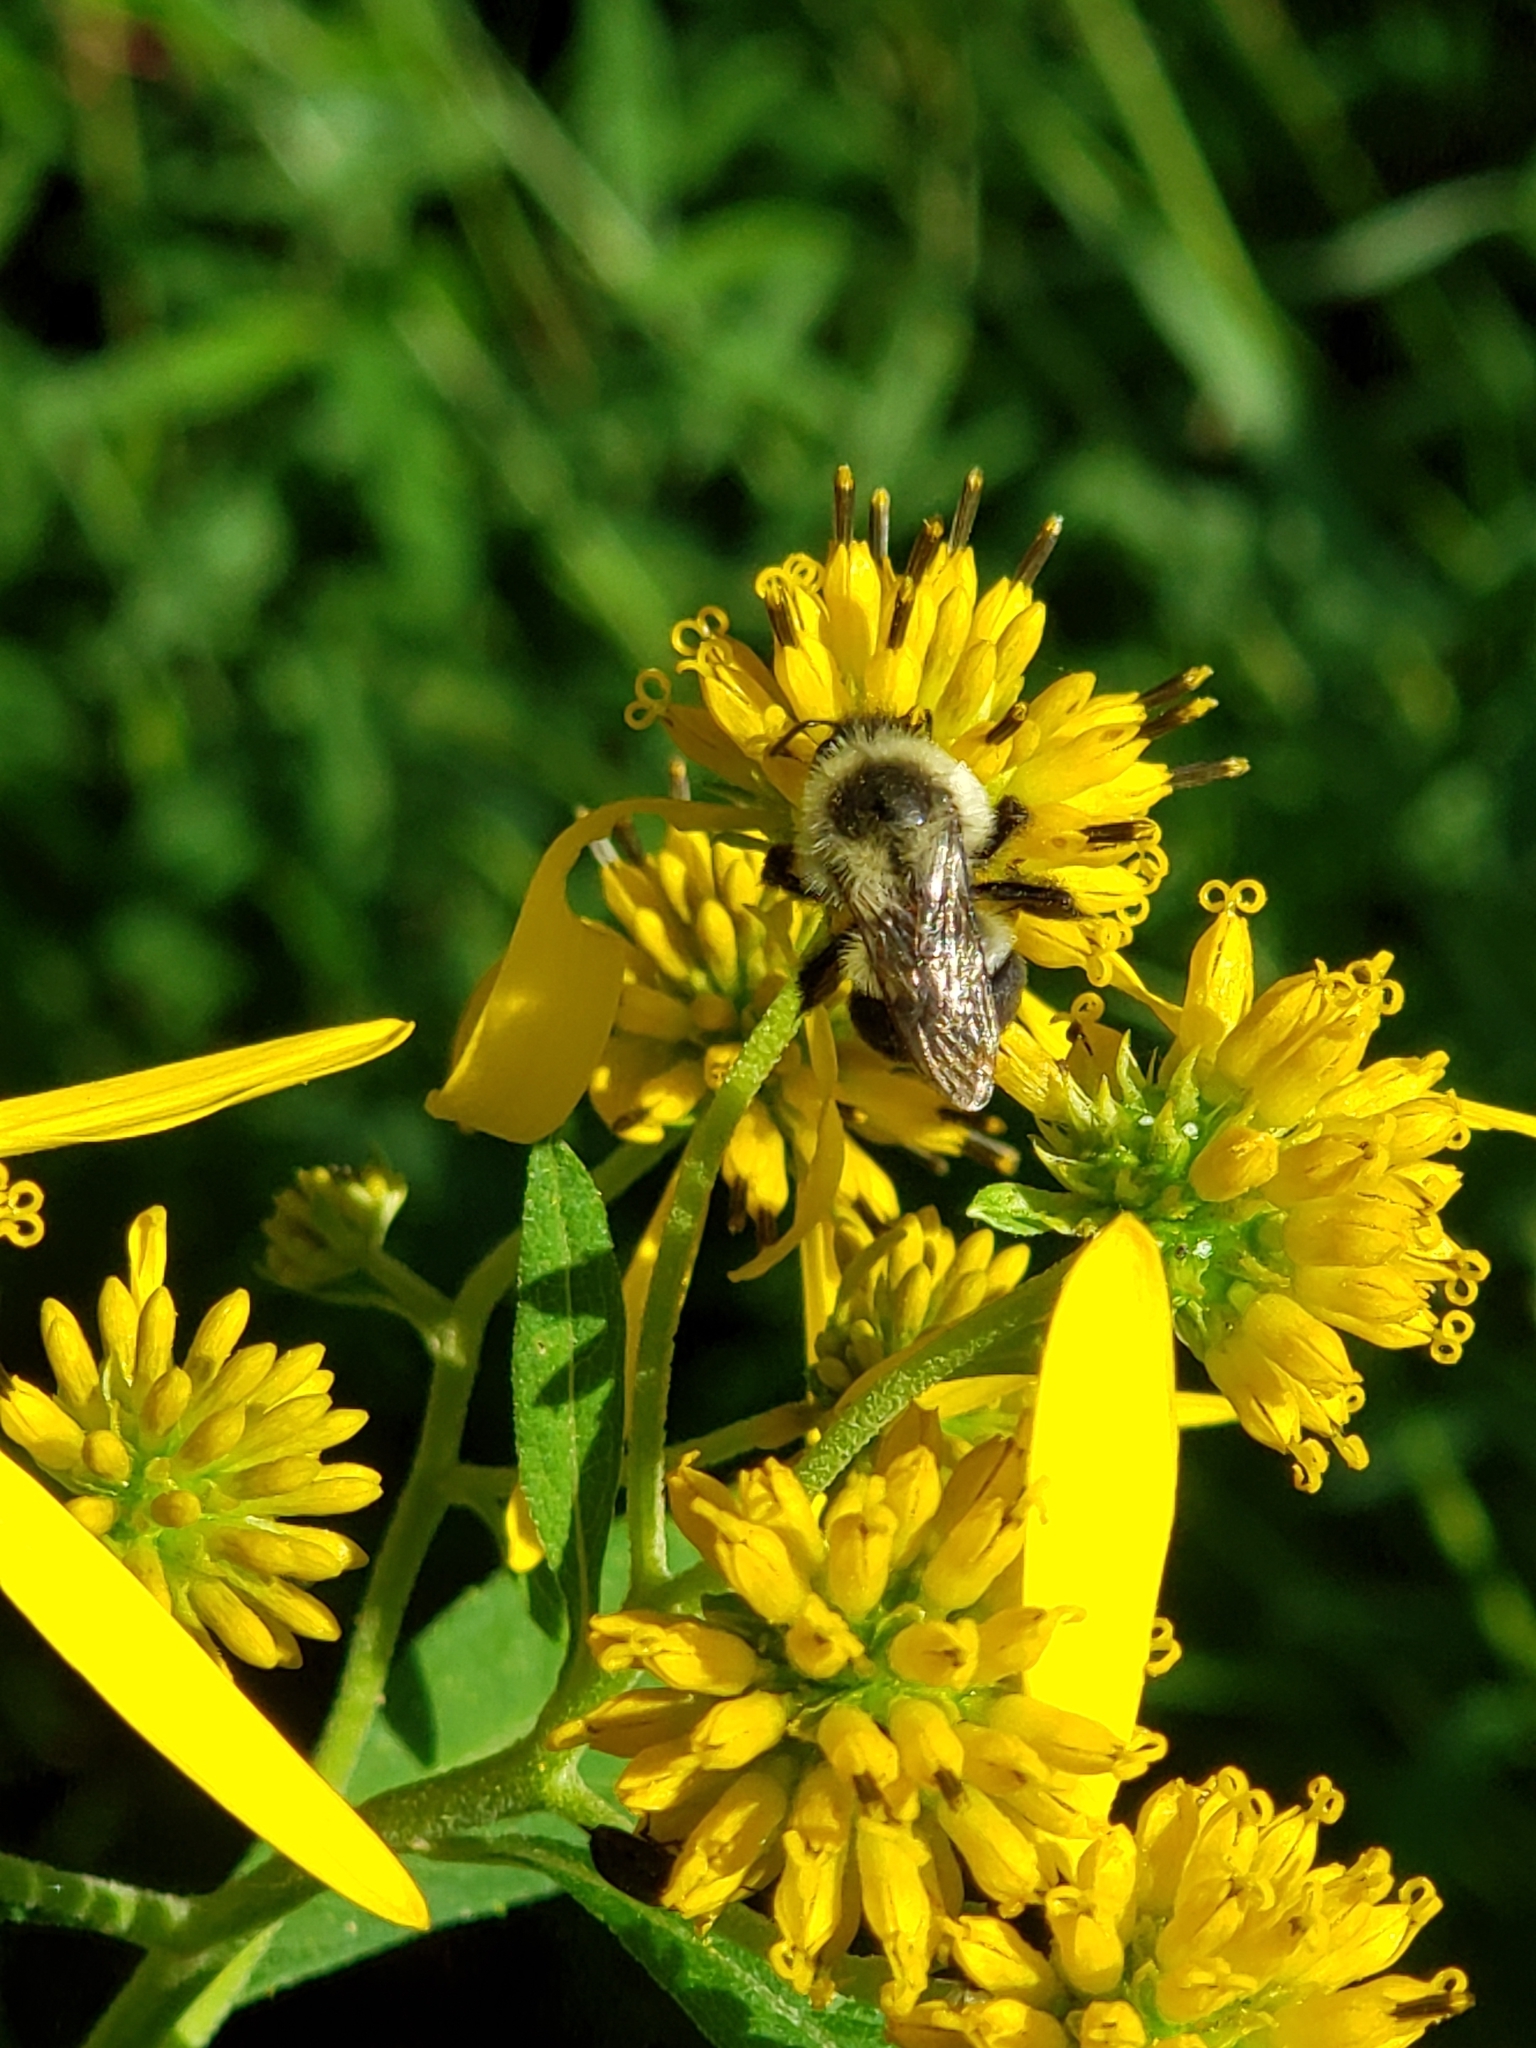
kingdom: Animalia
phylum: Arthropoda
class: Insecta
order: Hymenoptera
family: Apidae
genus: Bombus
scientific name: Bombus impatiens
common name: Common eastern bumble bee
